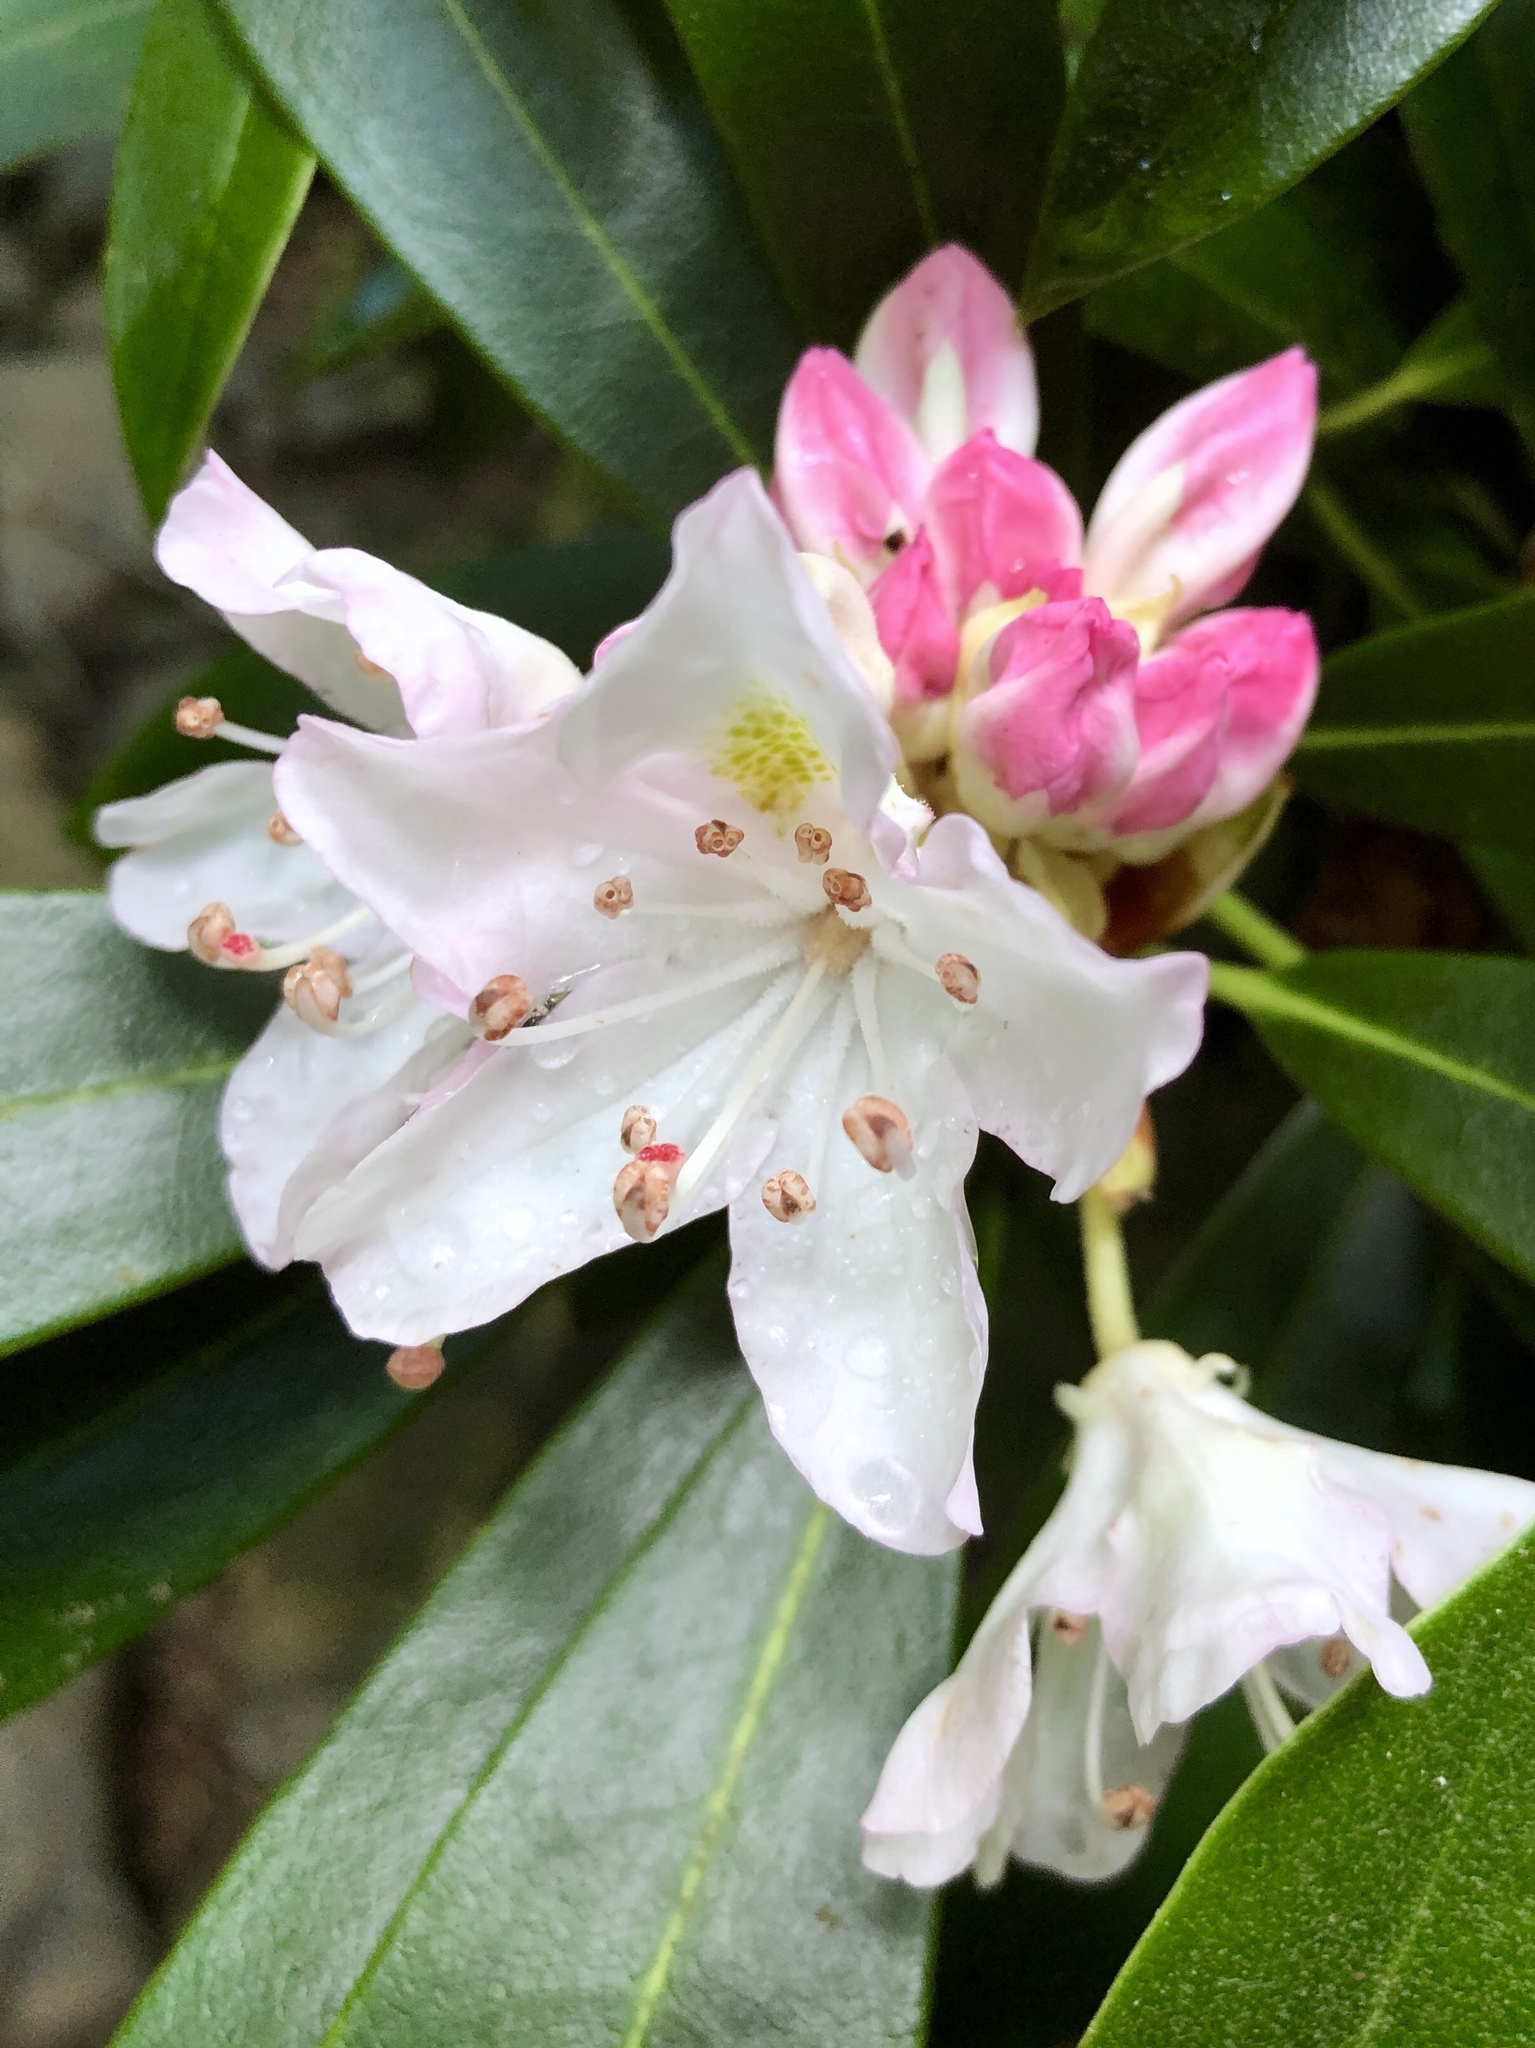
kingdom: Plantae
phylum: Tracheophyta
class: Magnoliopsida
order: Ericales
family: Ericaceae
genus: Rhododendron
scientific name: Rhododendron maximum
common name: Great rhododendron
